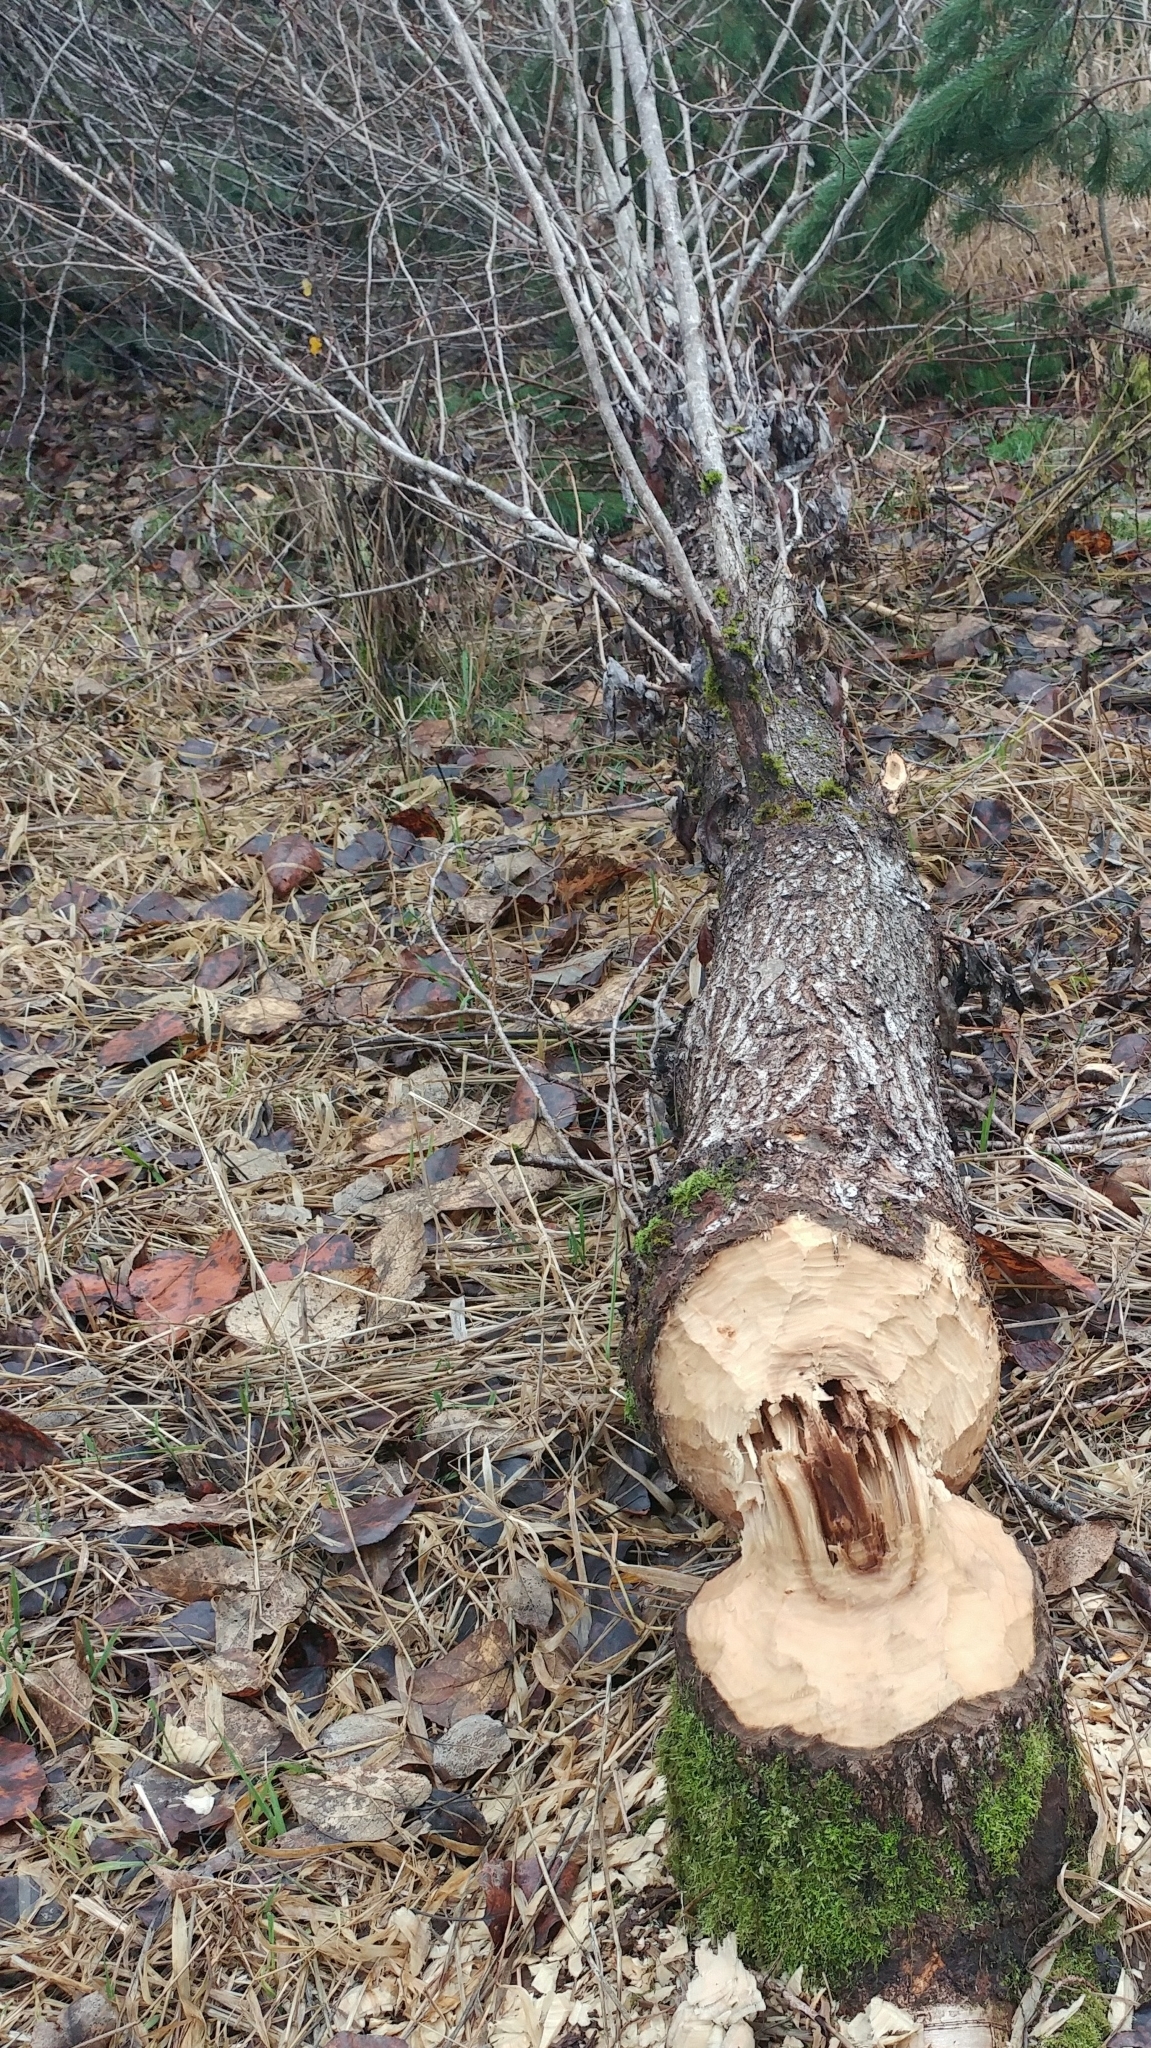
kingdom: Animalia
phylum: Chordata
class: Mammalia
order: Rodentia
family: Castoridae
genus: Castor
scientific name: Castor canadensis
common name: American beaver
